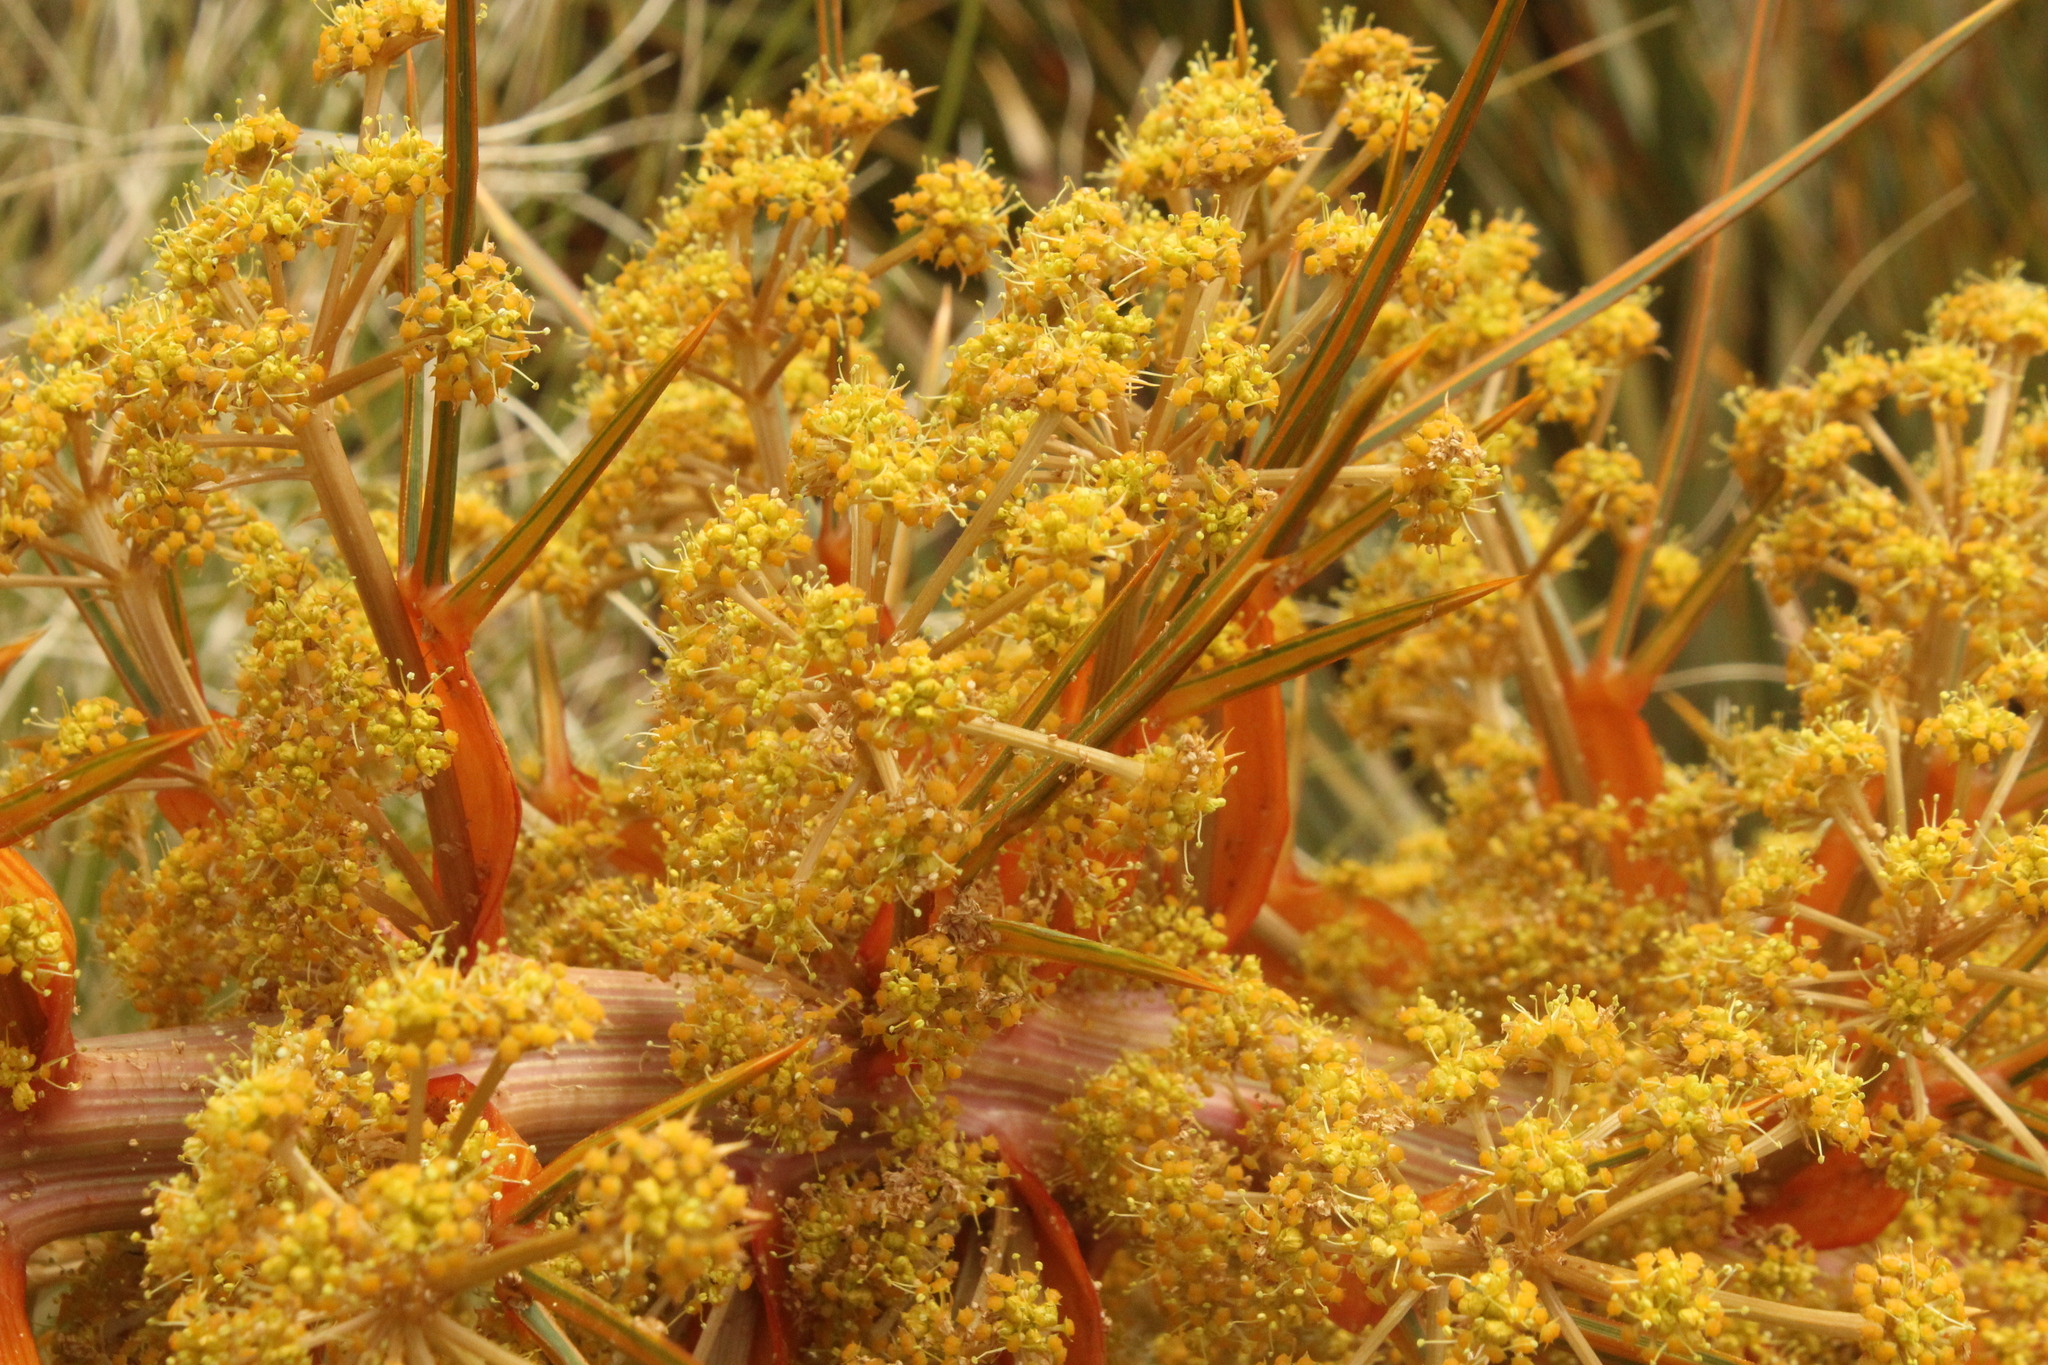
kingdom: Plantae
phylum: Tracheophyta
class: Magnoliopsida
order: Apiales
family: Apiaceae
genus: Aciphylla
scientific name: Aciphylla colensoi
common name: Colenso's spaniard
